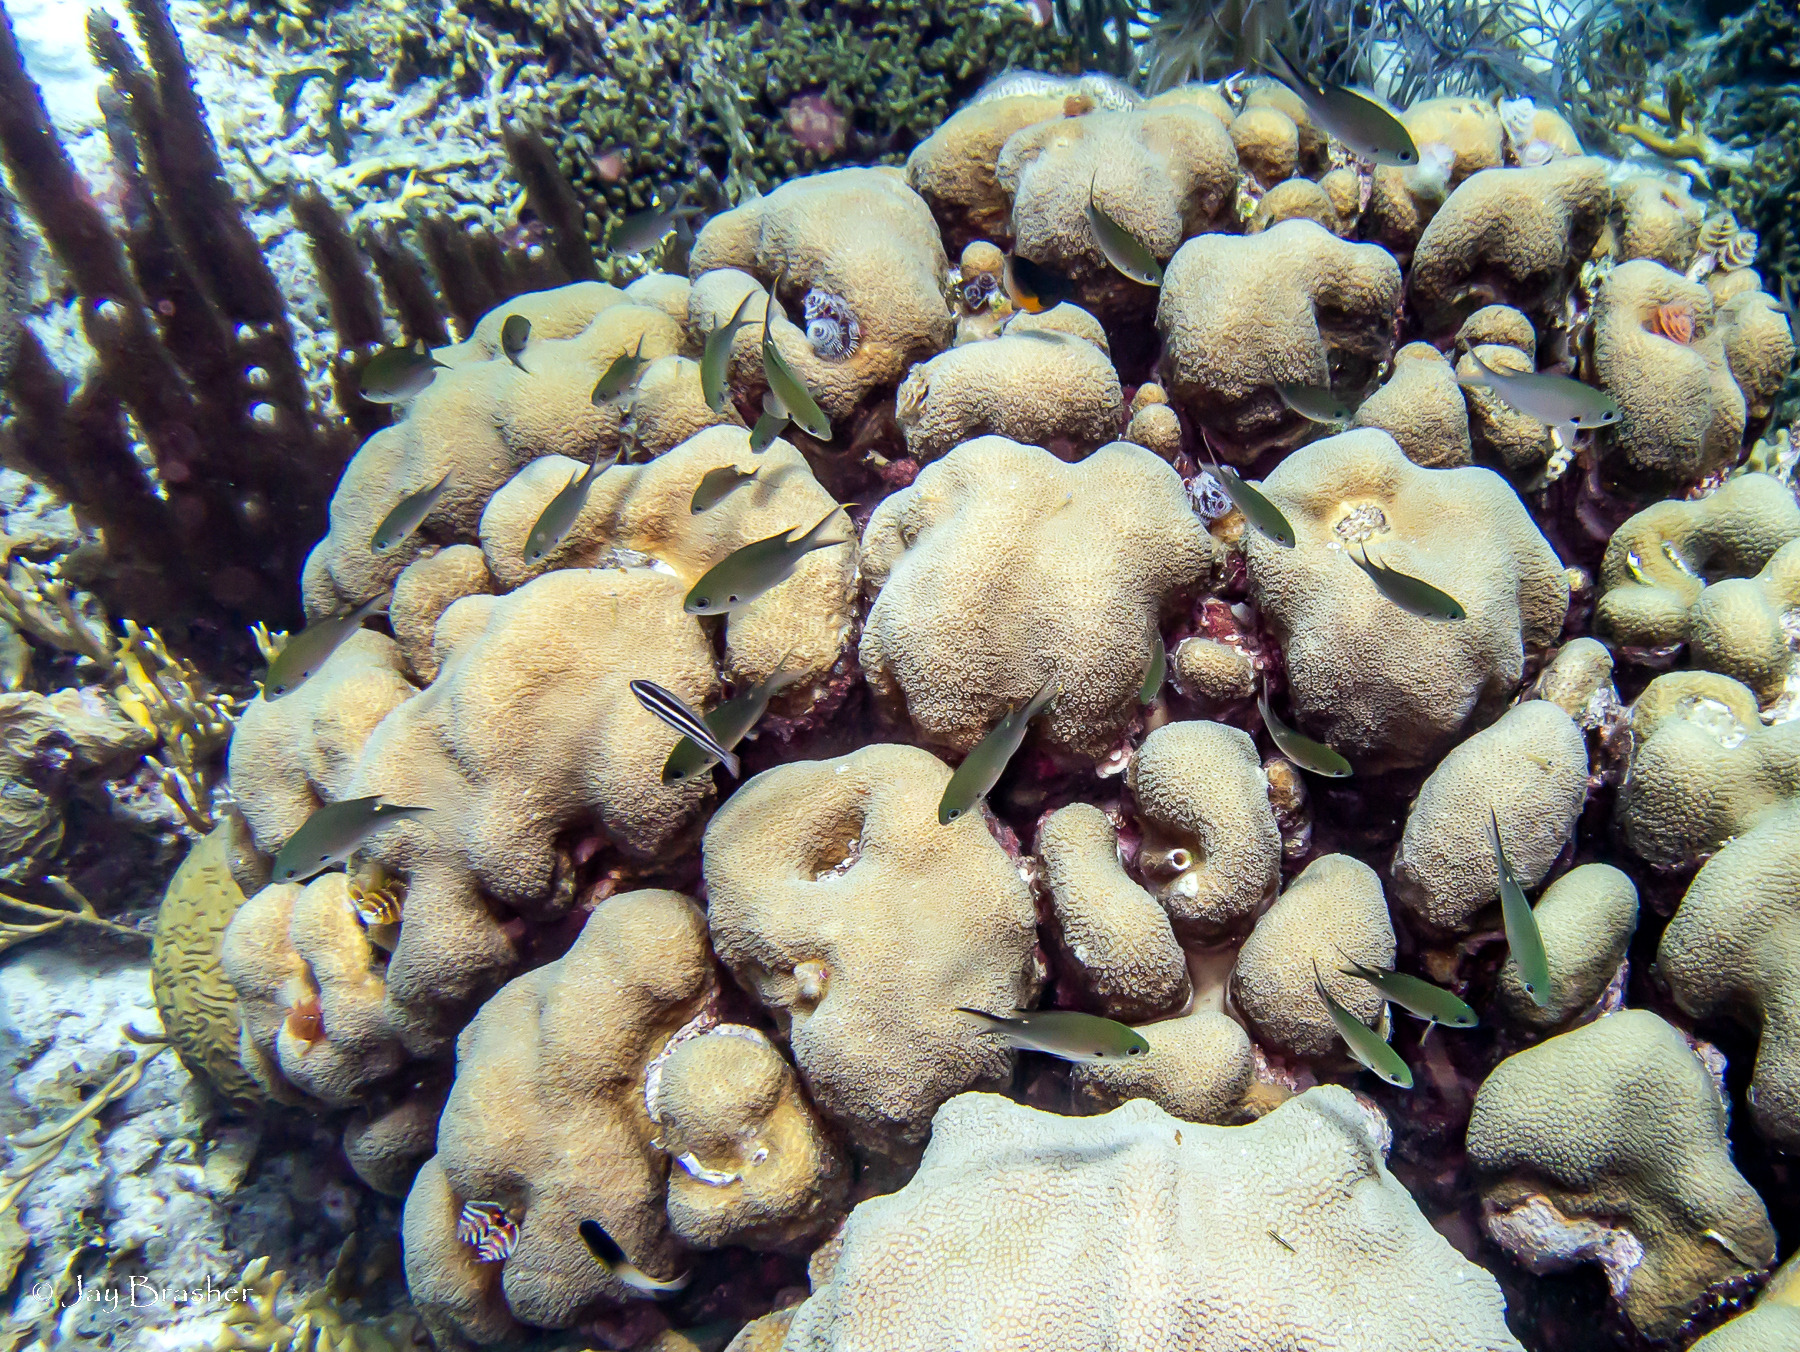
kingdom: Animalia
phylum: Chordata
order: Perciformes
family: Pomacentridae
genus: Chromis
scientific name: Chromis multilineata
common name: Brown chromis
